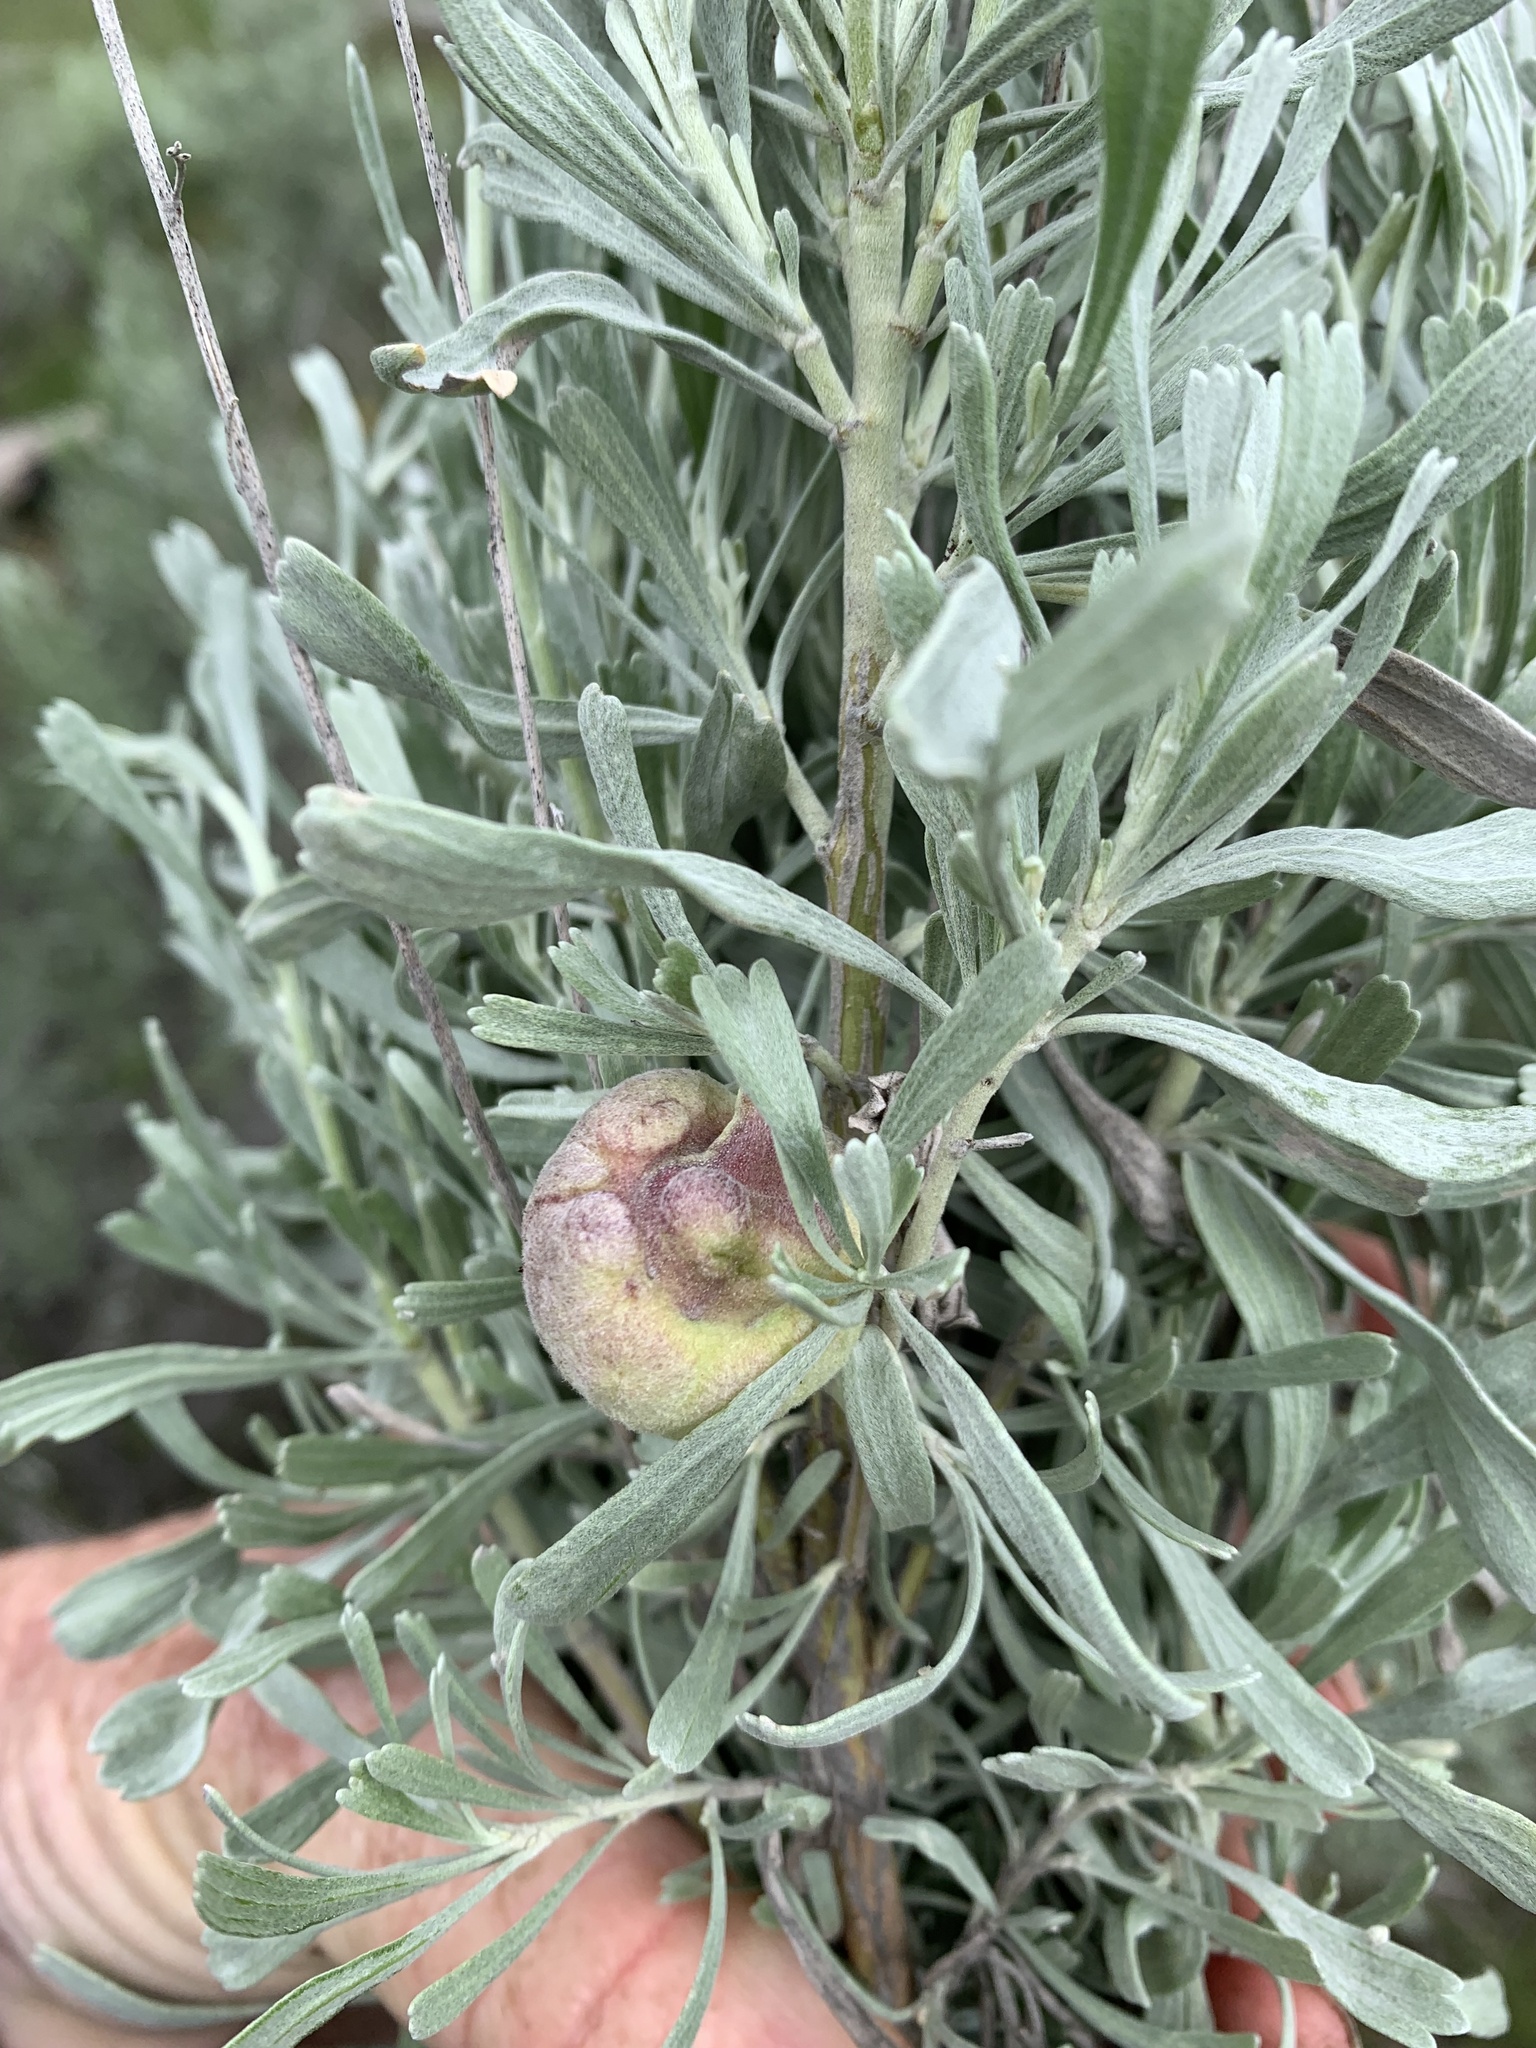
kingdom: Animalia
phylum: Arthropoda
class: Insecta
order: Diptera
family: Cecidomyiidae
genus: Rhopalomyia
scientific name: Rhopalomyia pomum
